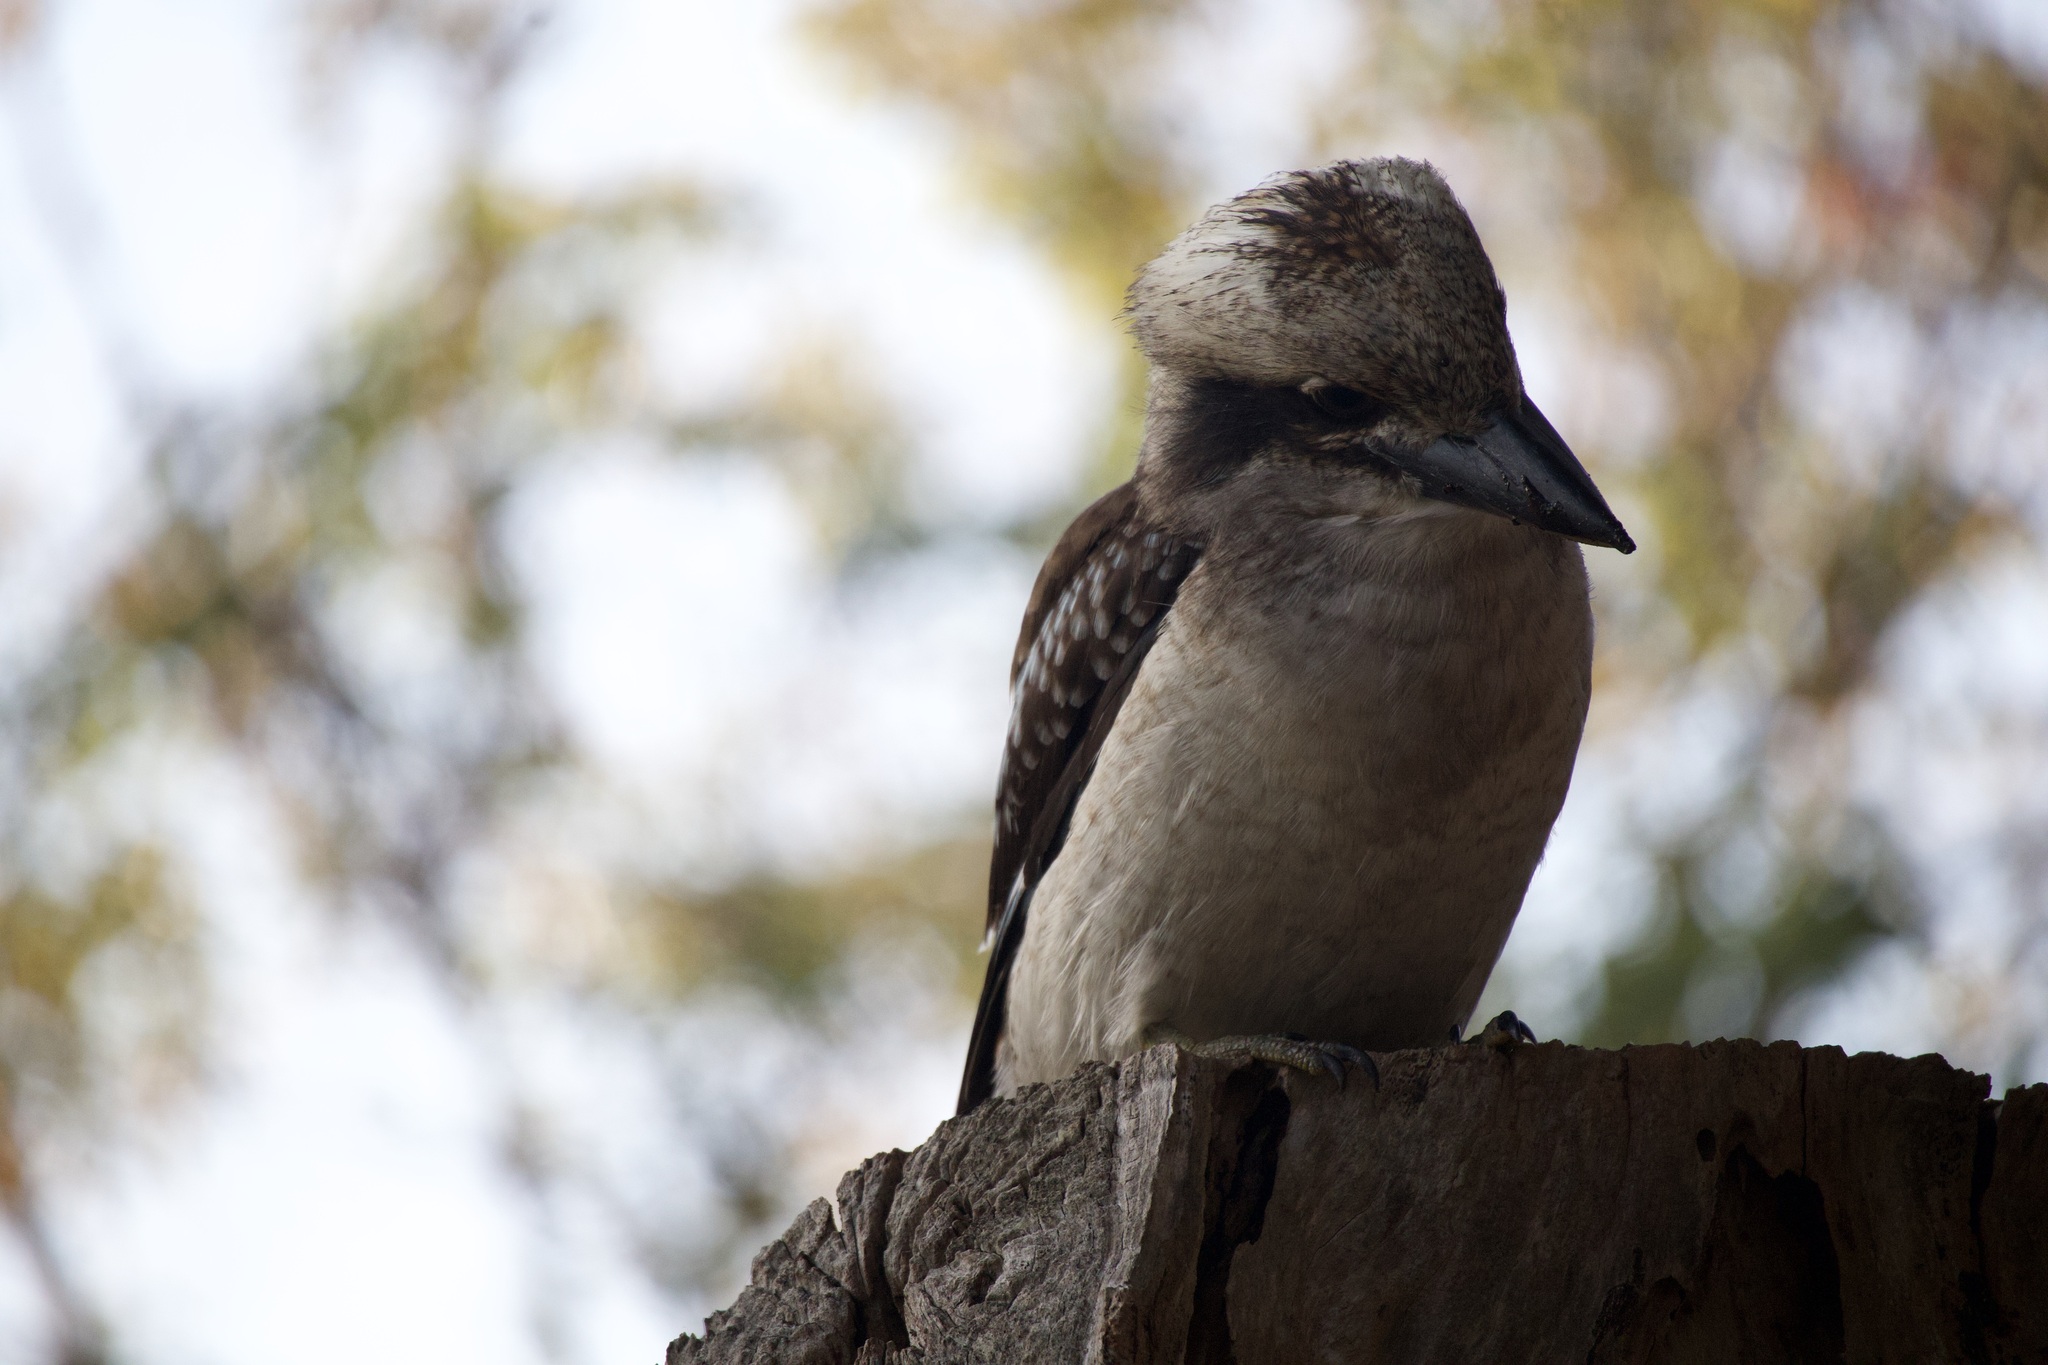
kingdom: Animalia
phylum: Chordata
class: Aves
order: Coraciiformes
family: Alcedinidae
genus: Dacelo
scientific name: Dacelo novaeguineae
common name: Laughing kookaburra
